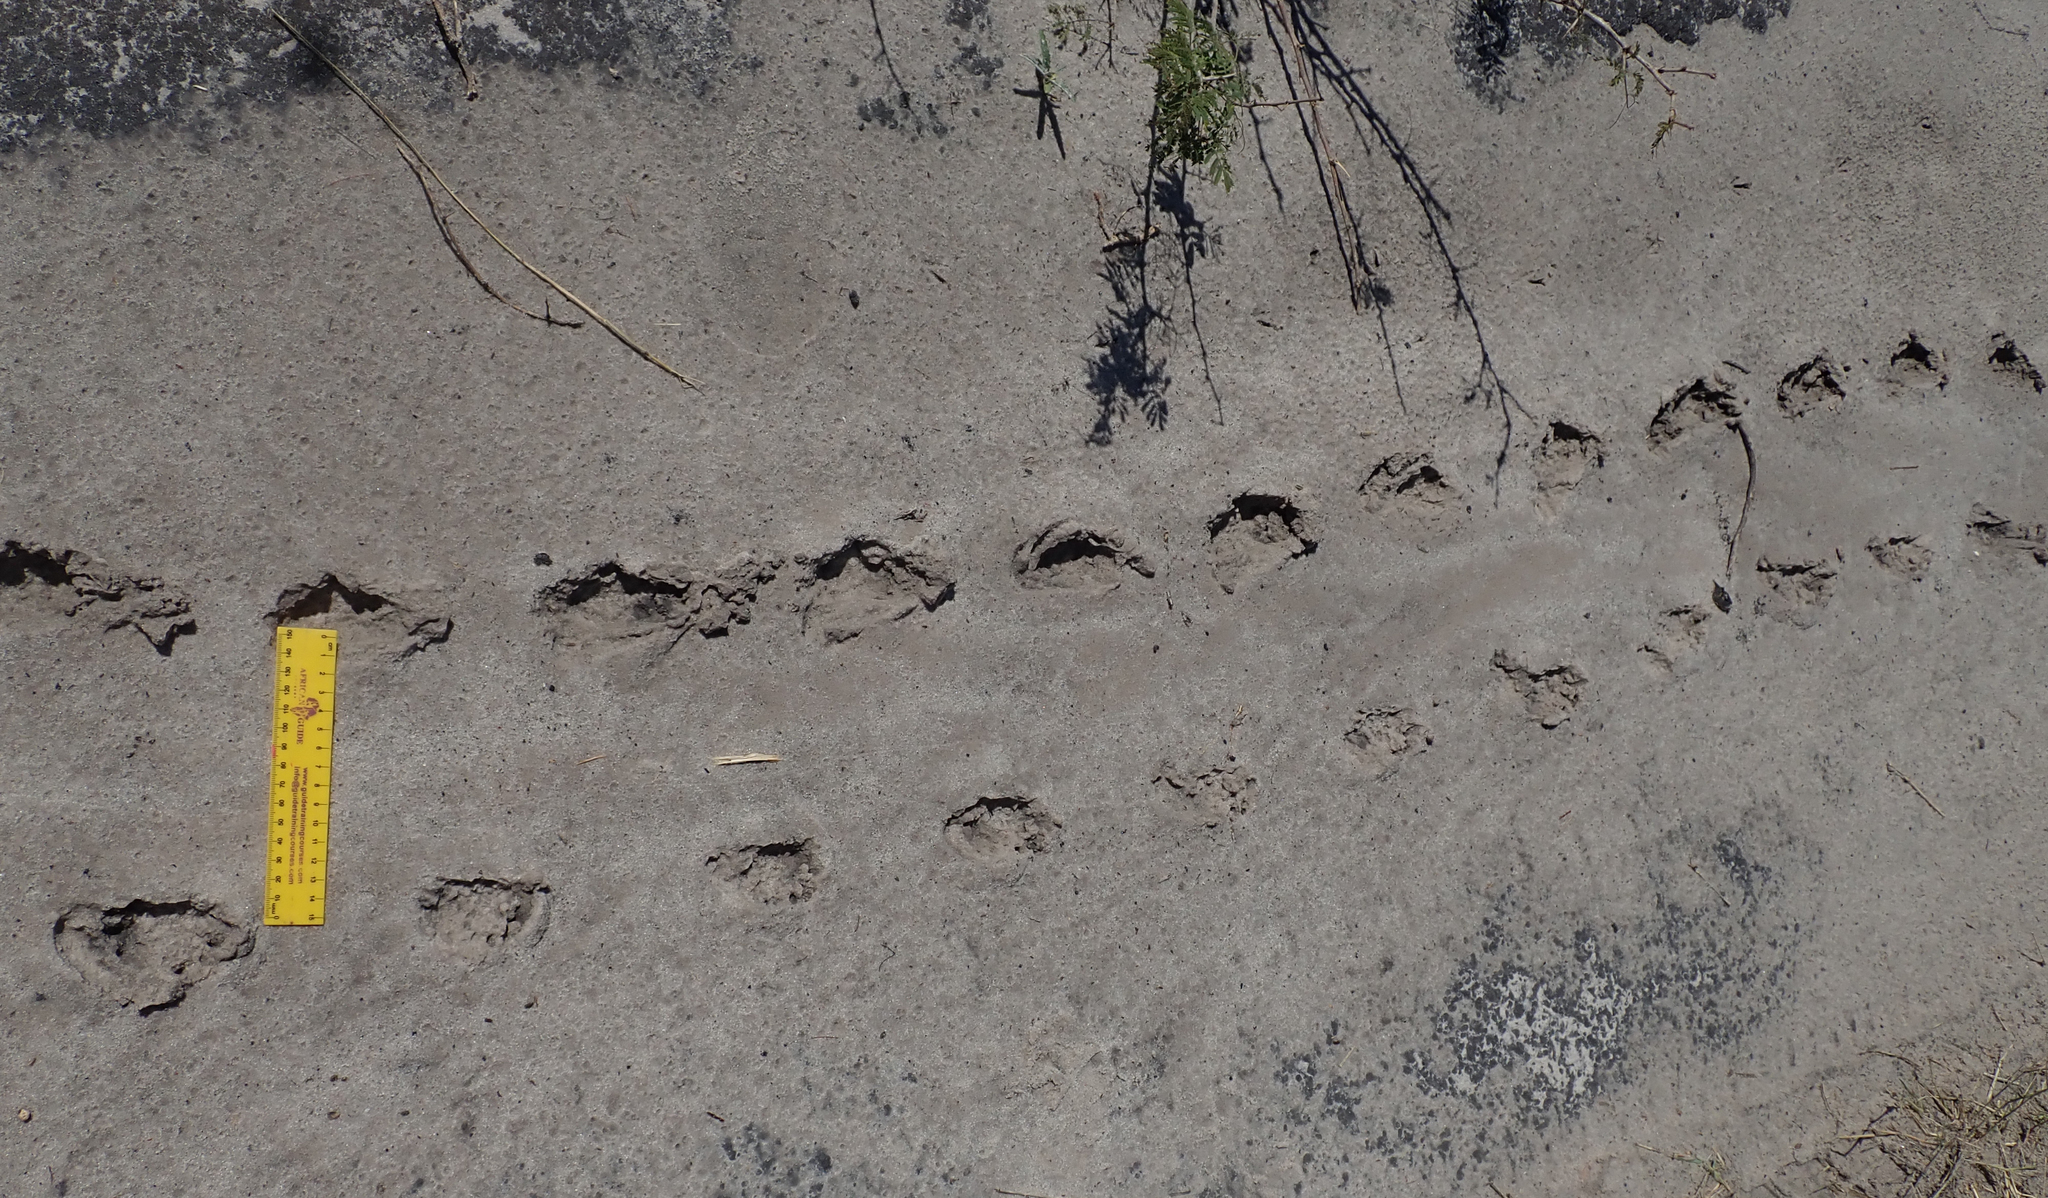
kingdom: Animalia
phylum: Chordata
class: Testudines
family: Testudinidae
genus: Stigmochelys
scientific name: Stigmochelys pardalis
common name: Leopard tortoise
